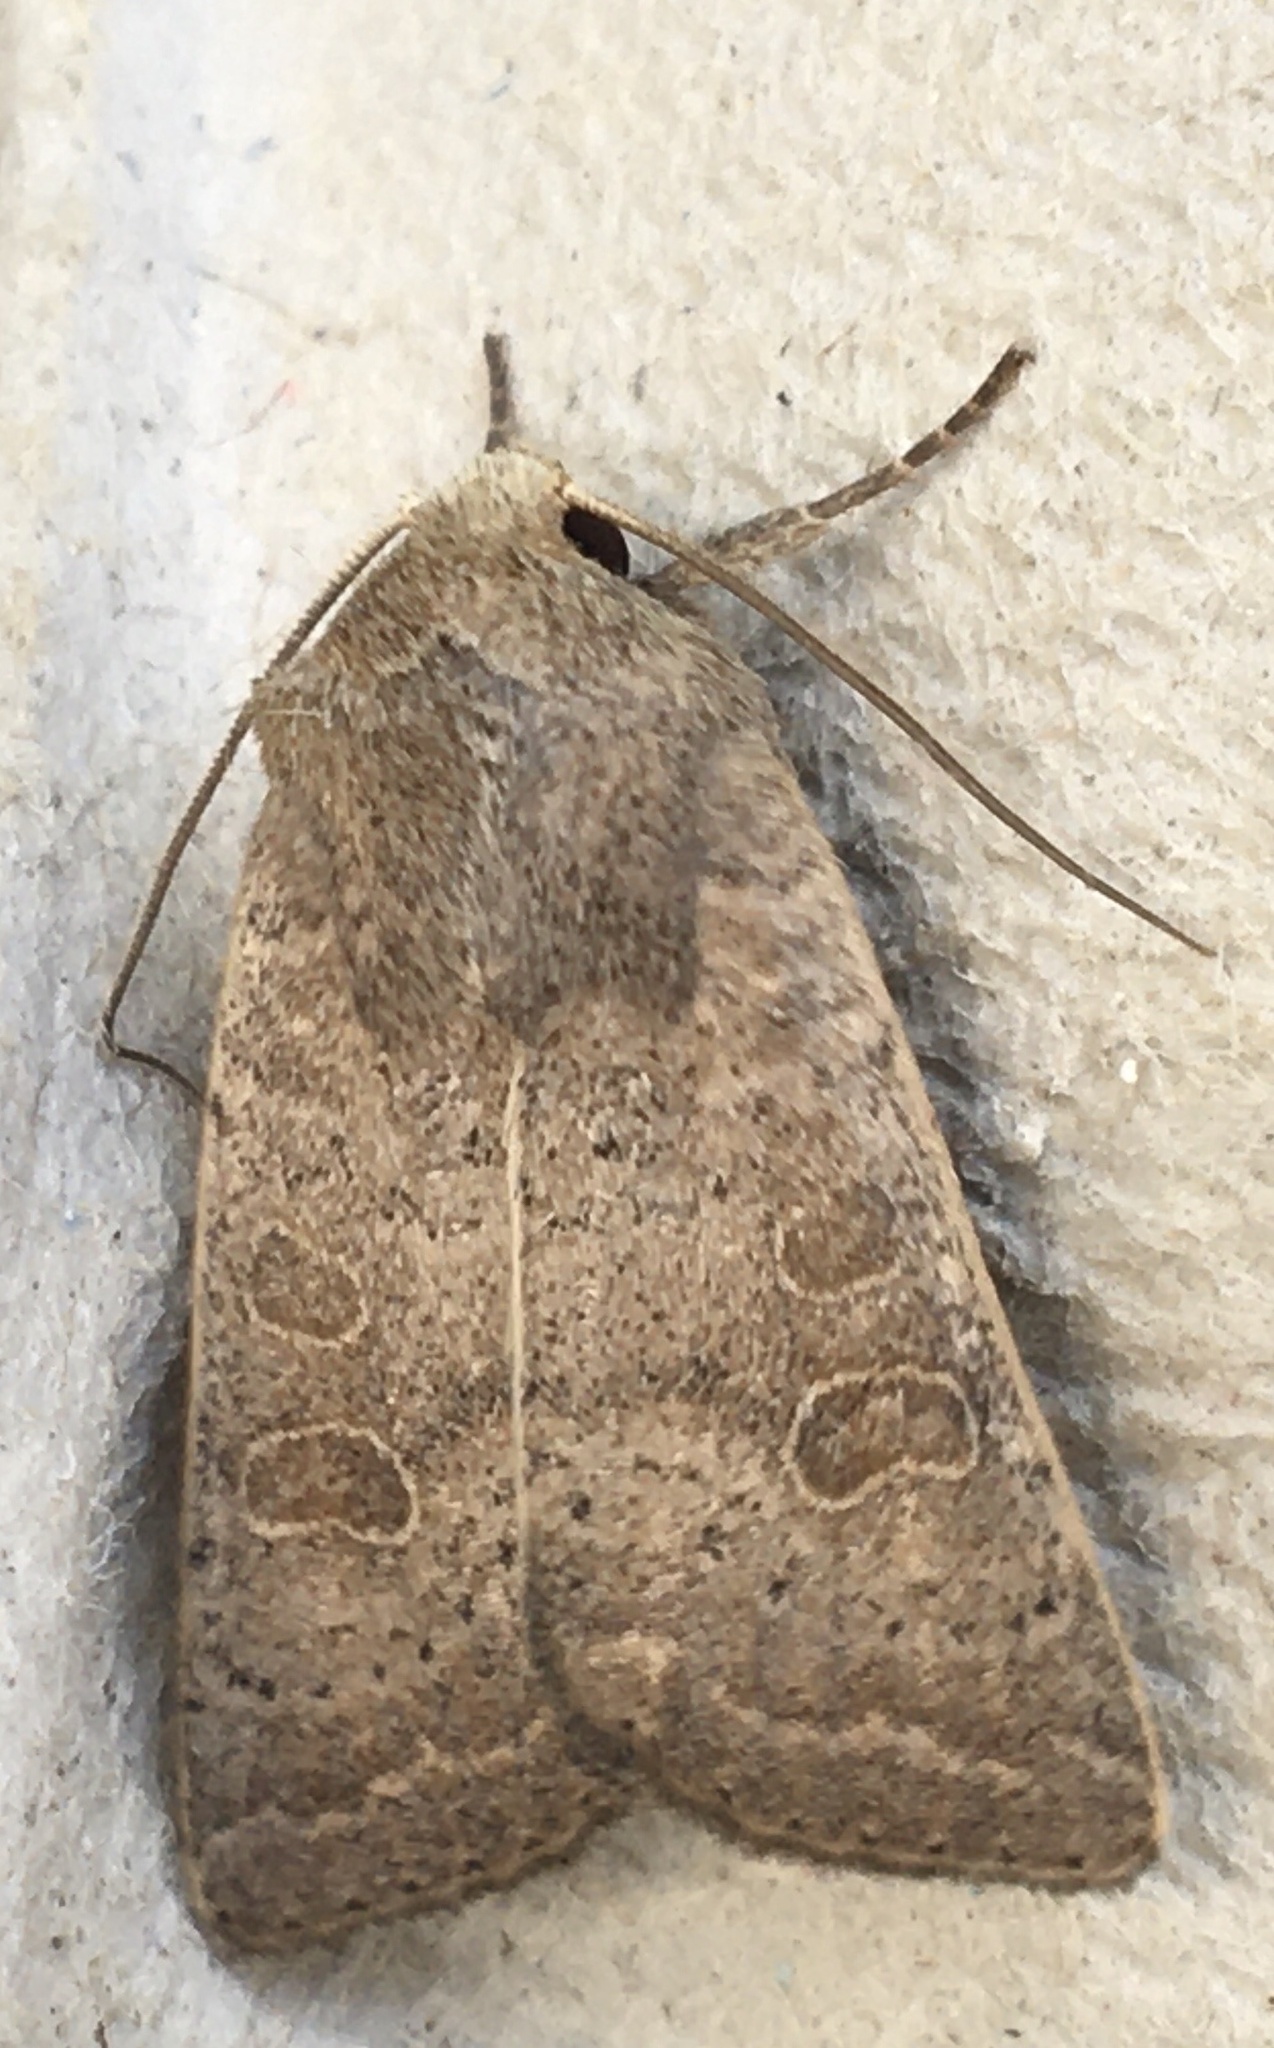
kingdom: Animalia
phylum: Arthropoda
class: Insecta
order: Lepidoptera
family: Noctuidae
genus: Hoplodrina
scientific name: Hoplodrina ambigua
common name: Vine's rustic
